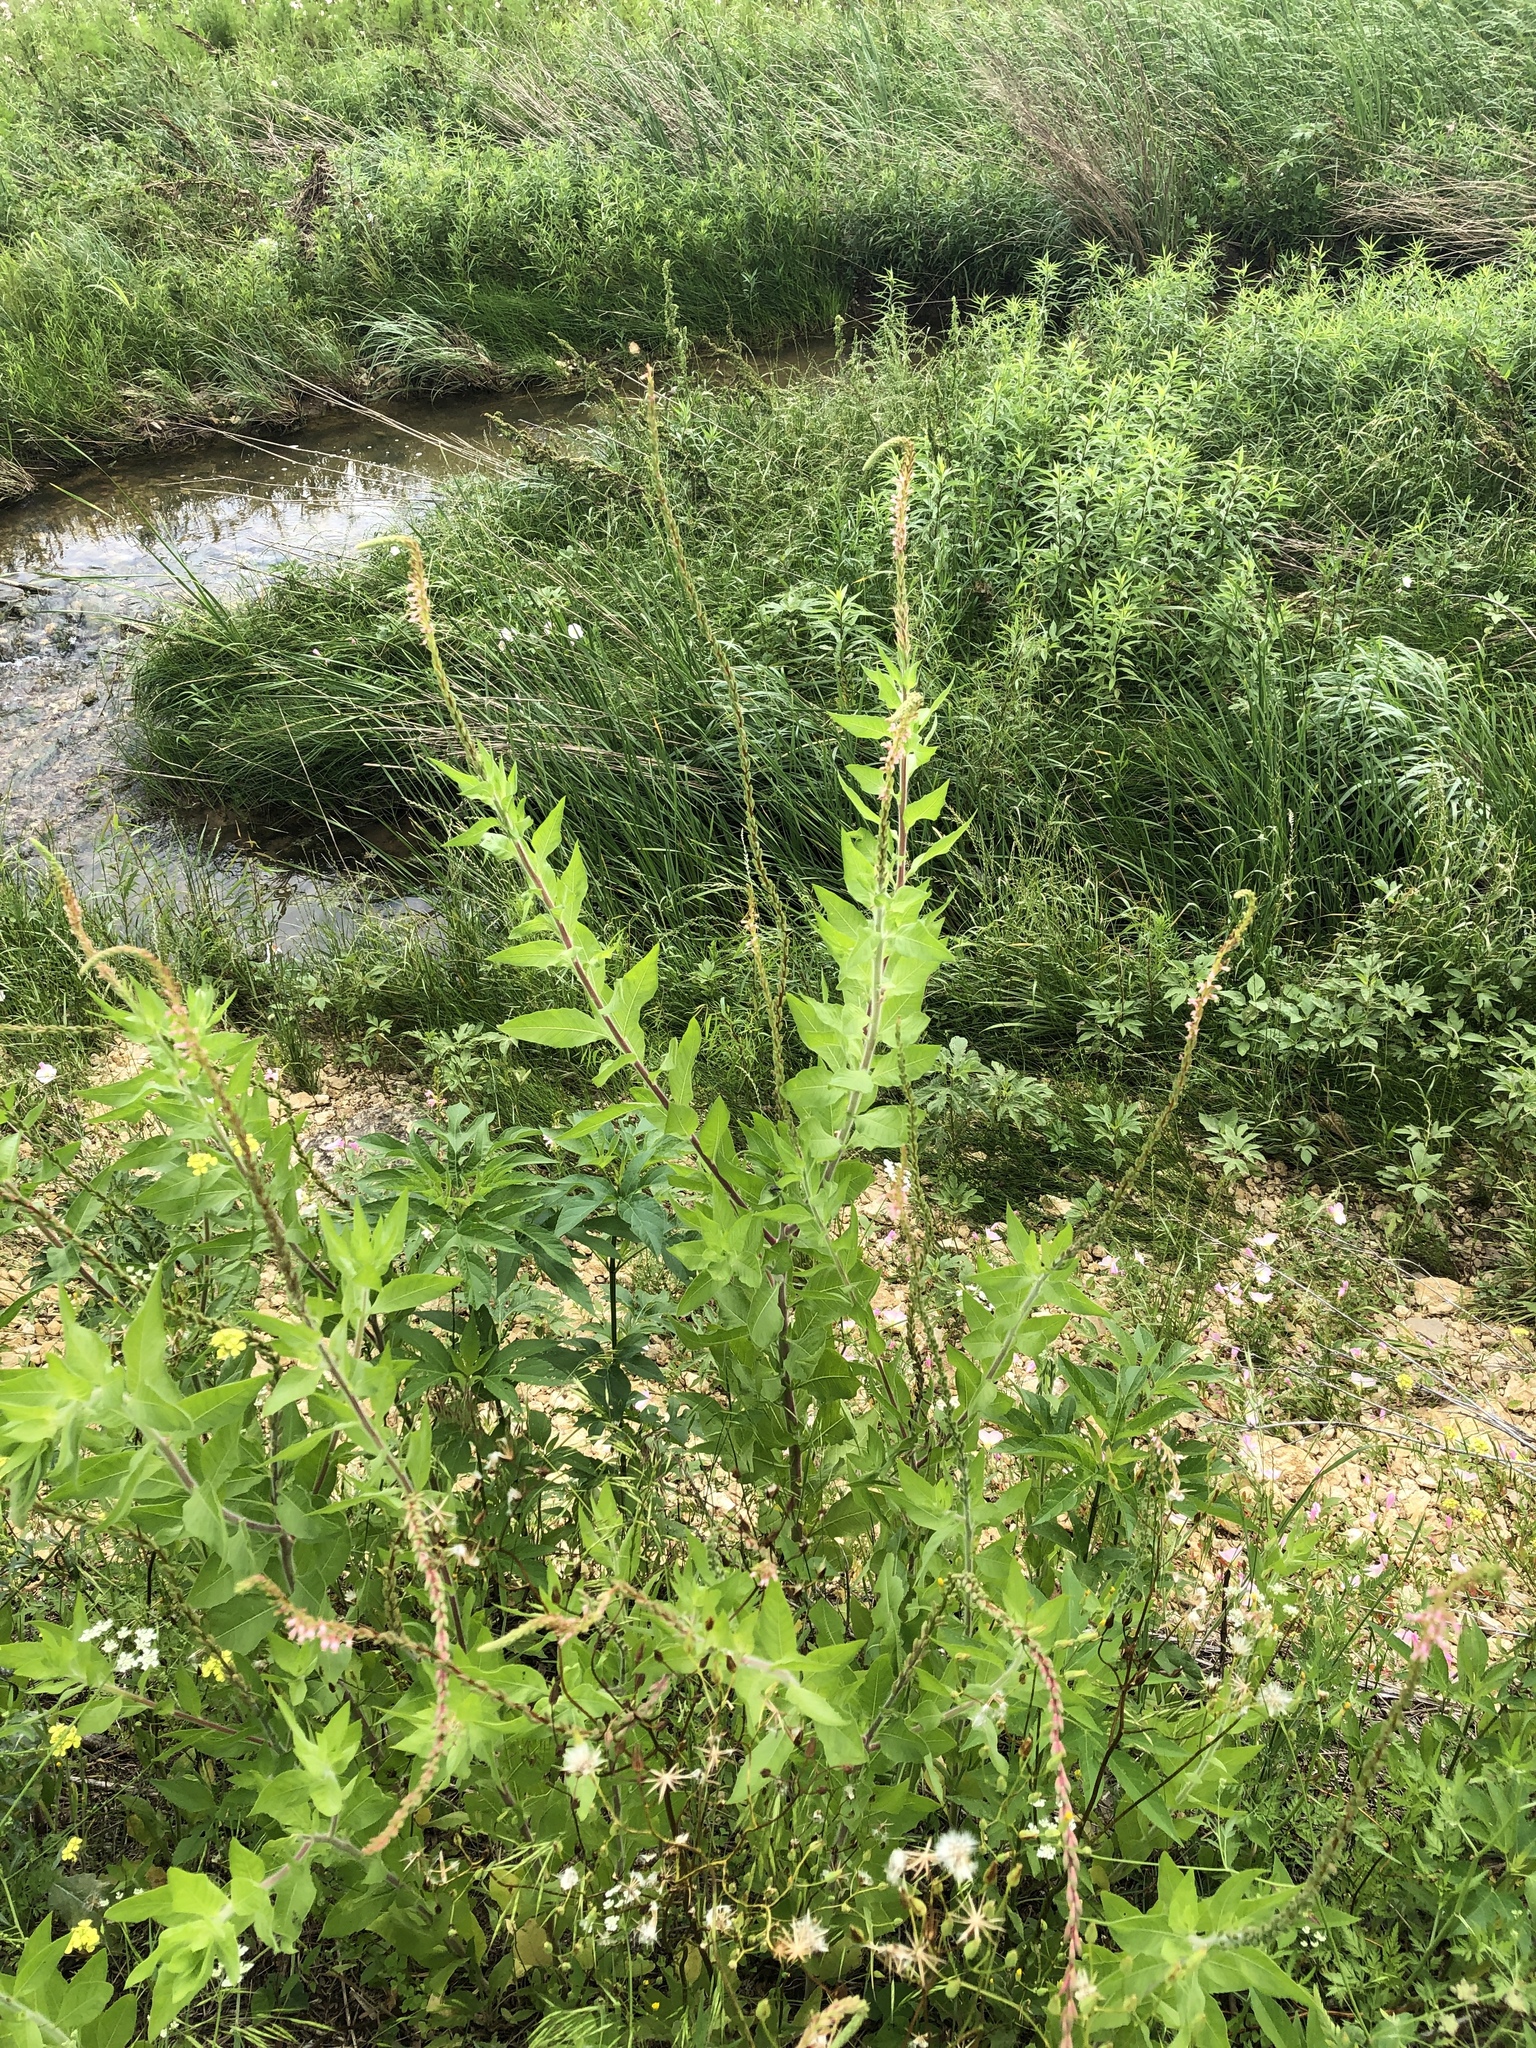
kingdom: Plantae
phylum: Tracheophyta
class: Magnoliopsida
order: Myrtales
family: Onagraceae
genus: Oenothera
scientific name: Oenothera curtiflora
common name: Velvetweed
